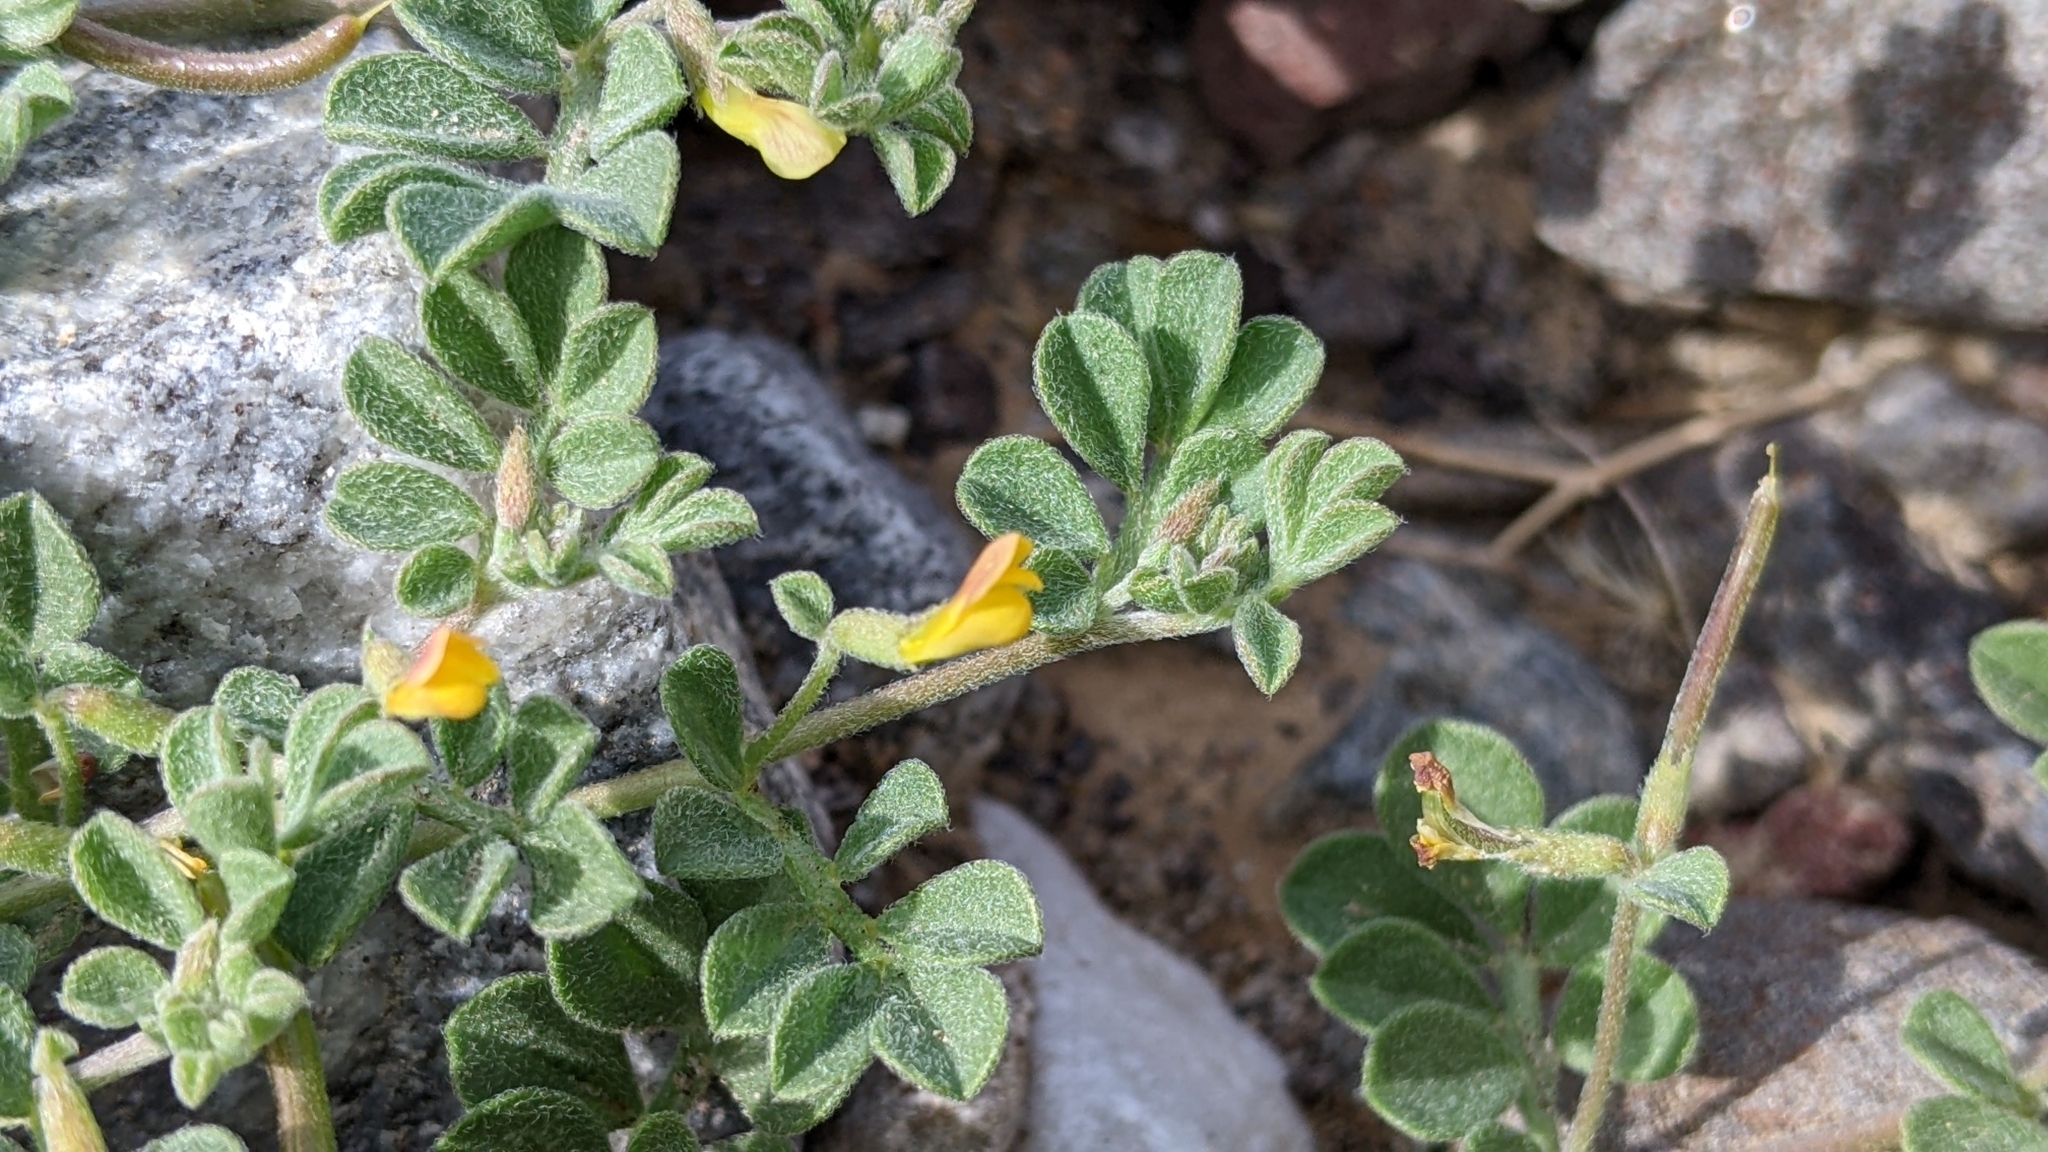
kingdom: Plantae
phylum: Tracheophyta
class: Magnoliopsida
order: Fabales
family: Fabaceae
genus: Acmispon
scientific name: Acmispon strigosus
